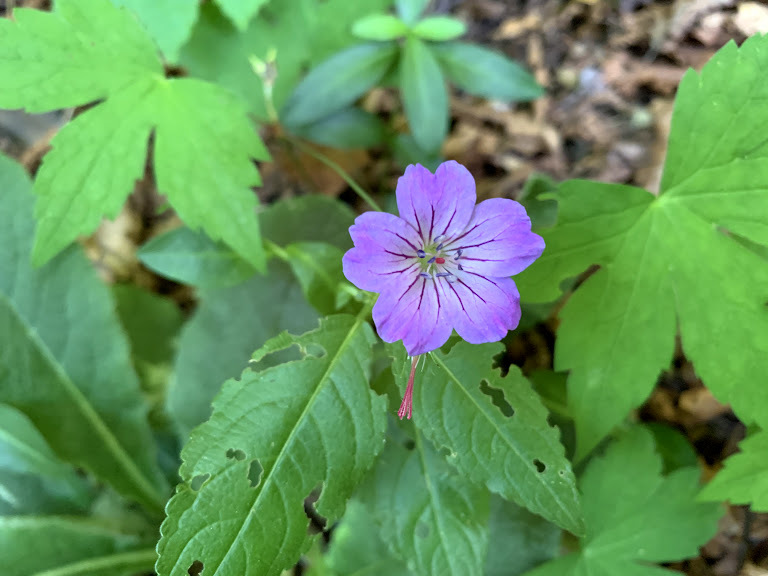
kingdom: Plantae
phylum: Tracheophyta
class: Magnoliopsida
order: Geraniales
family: Geraniaceae
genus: Geranium
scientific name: Geranium nodosum
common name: Knotted crane's-bill
